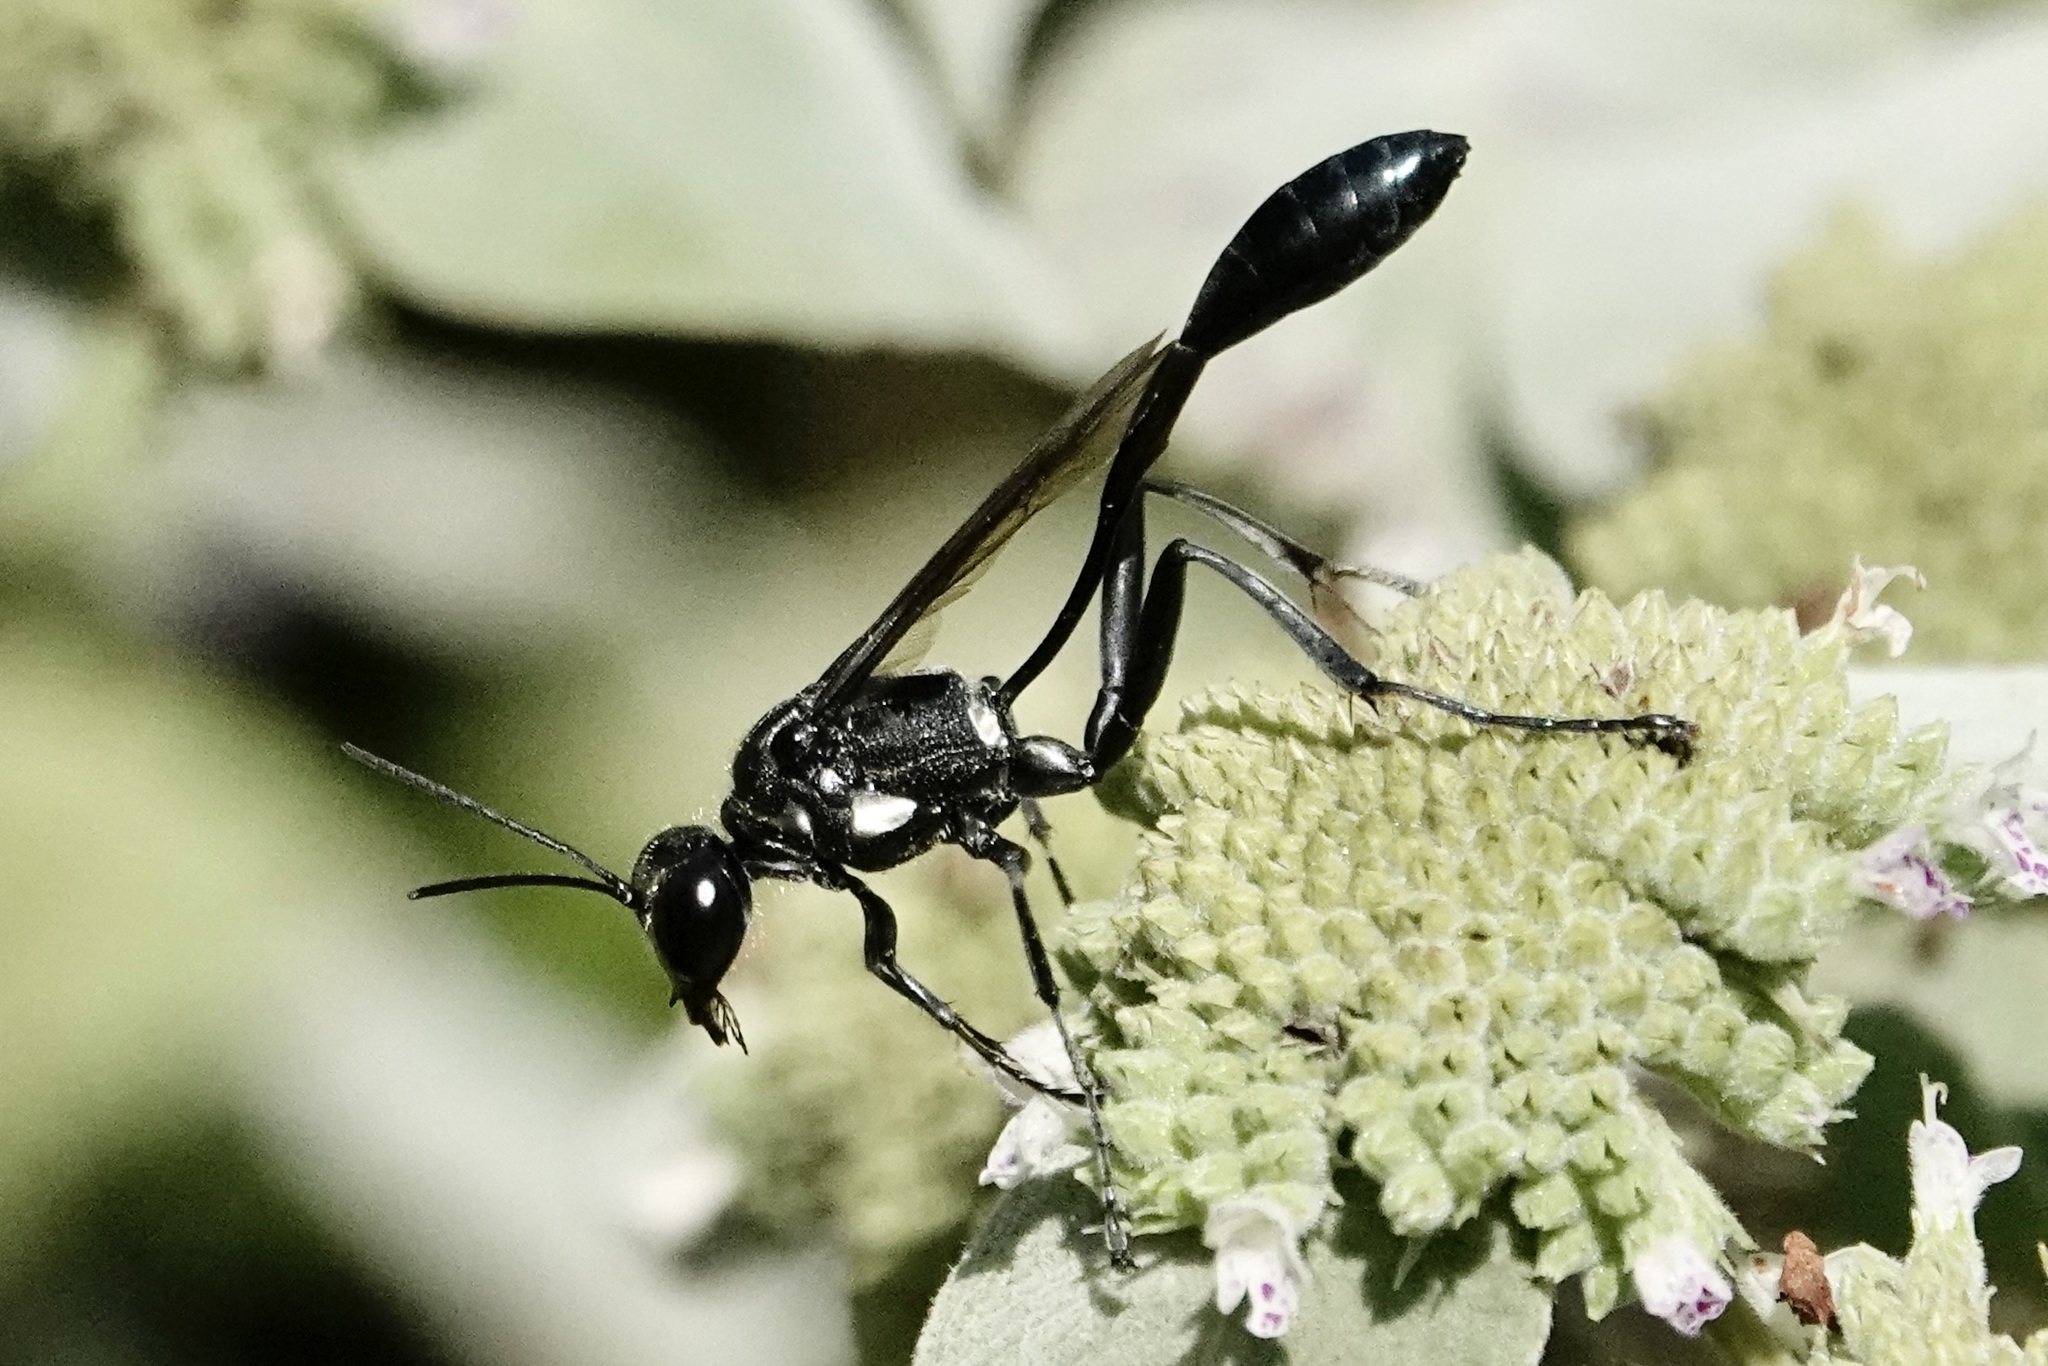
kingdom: Animalia
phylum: Arthropoda
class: Insecta
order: Hymenoptera
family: Sphecidae
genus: Eremnophila
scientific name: Eremnophila aureonotata
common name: Gold-marked thread-waisted wasp
